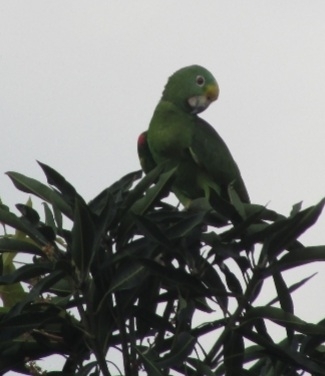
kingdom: Animalia
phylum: Chordata
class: Aves
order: Psittaciformes
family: Psittacidae
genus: Amazona
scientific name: Amazona ochrocephala
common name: Yellow-crowned amazon
